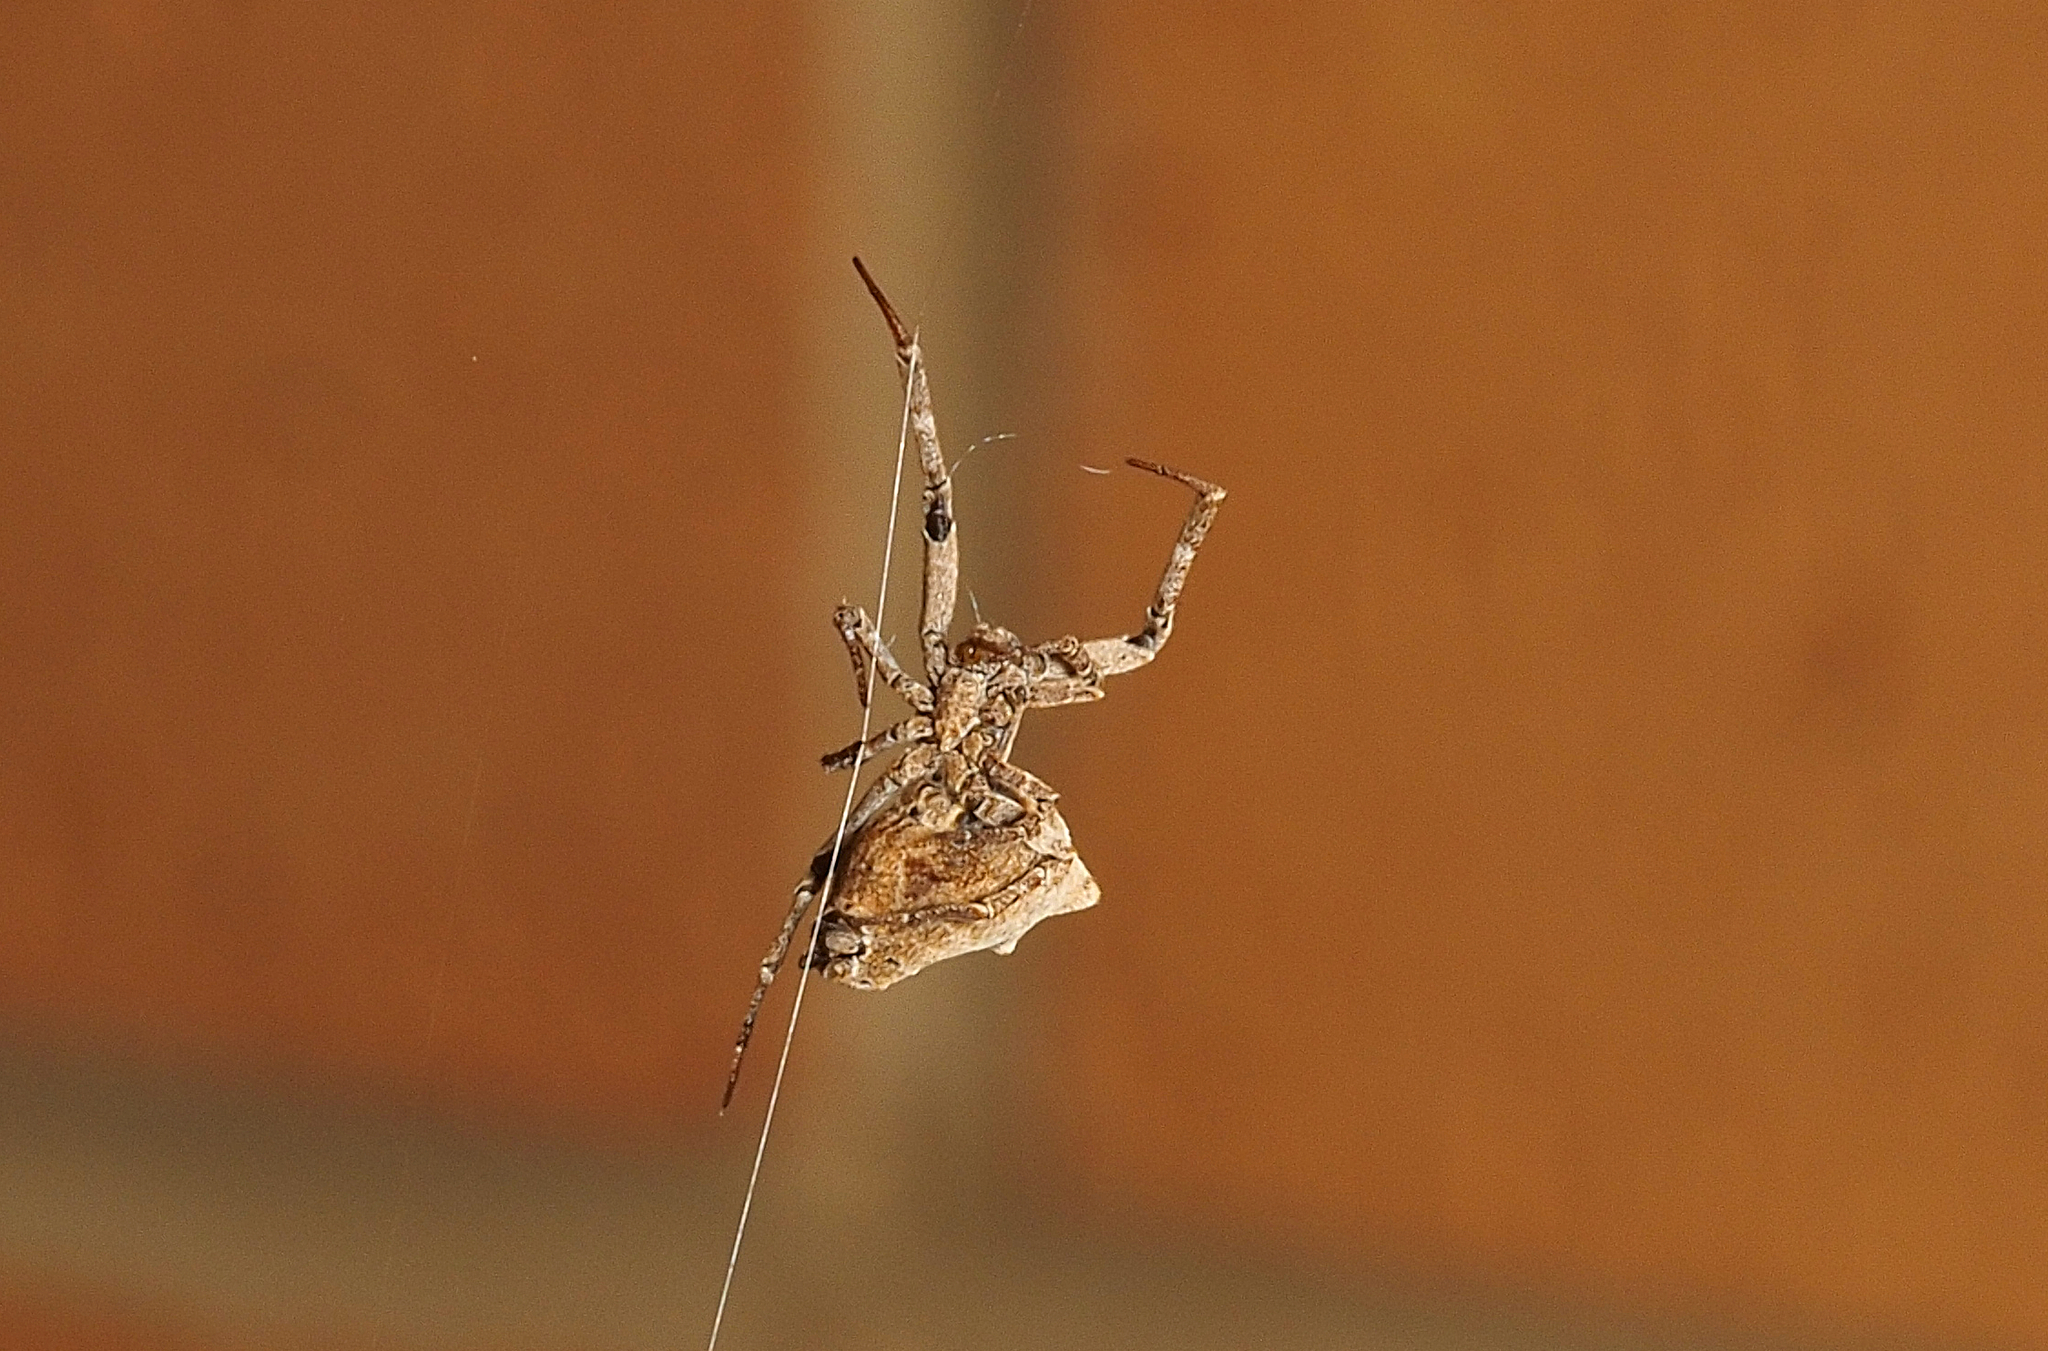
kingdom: Animalia
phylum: Arthropoda
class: Arachnida
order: Araneae
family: Uloboridae
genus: Philoponella
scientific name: Philoponella congregabilis
